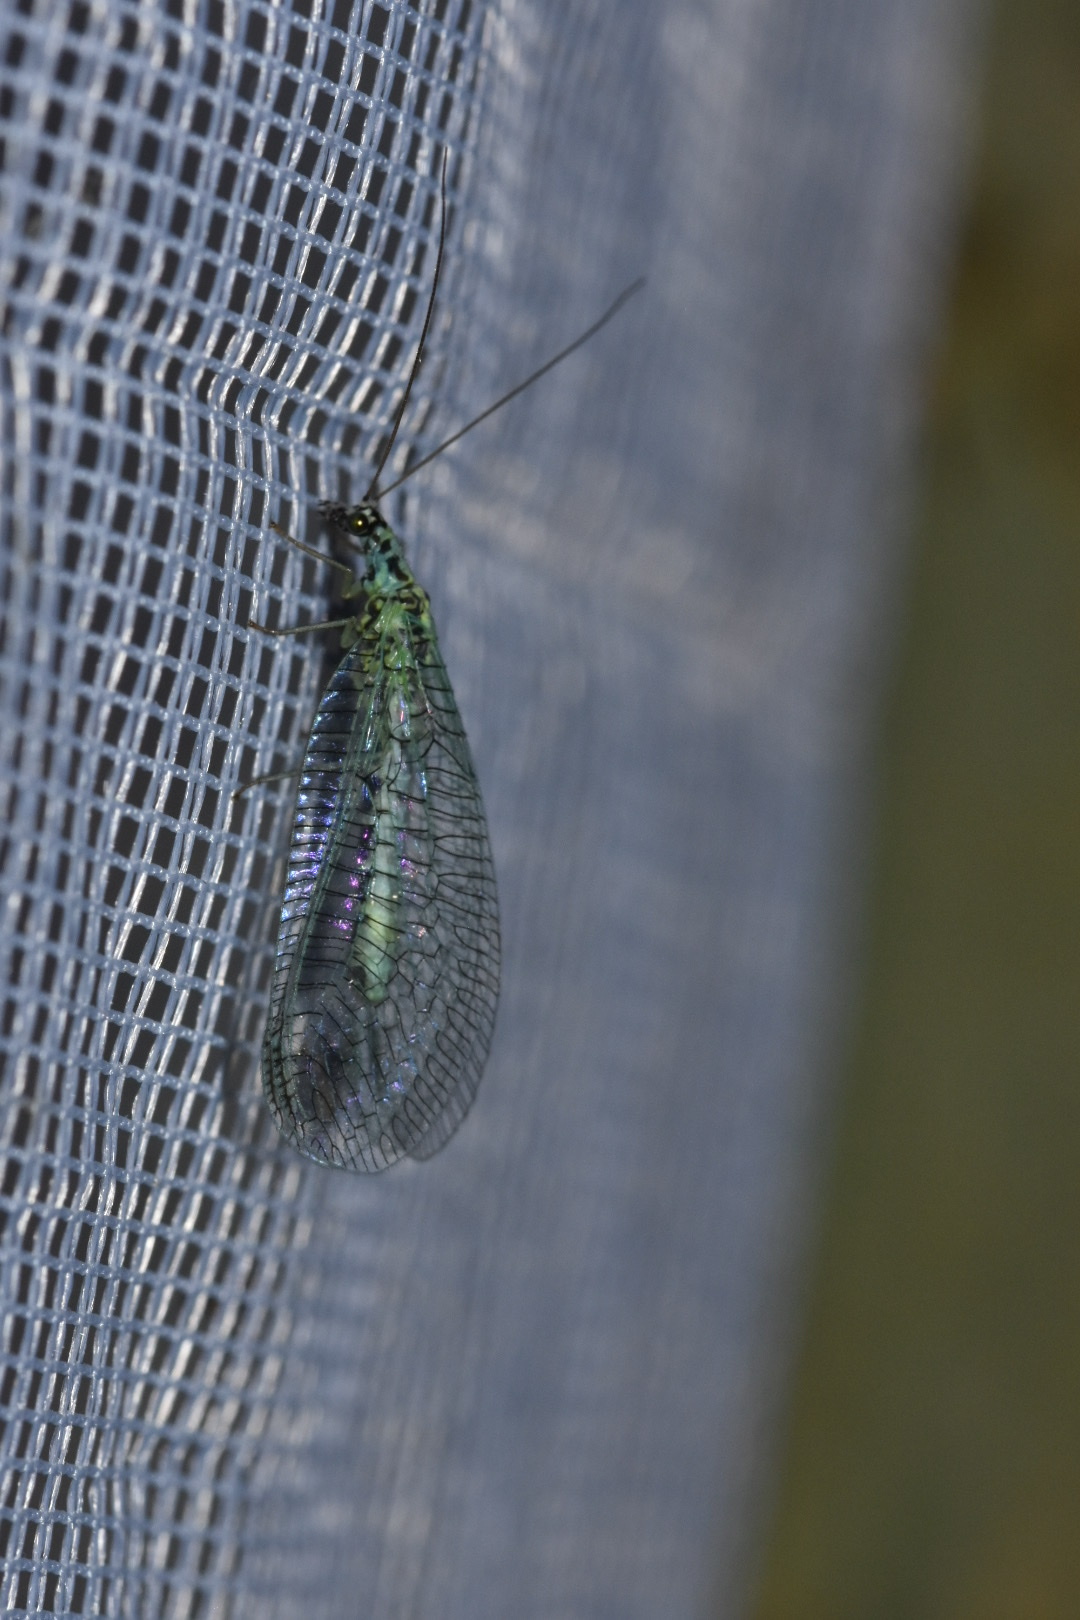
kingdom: Animalia
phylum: Arthropoda
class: Insecta
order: Neuroptera
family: Chrysopidae
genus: Chrysopa
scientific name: Chrysopa perla
